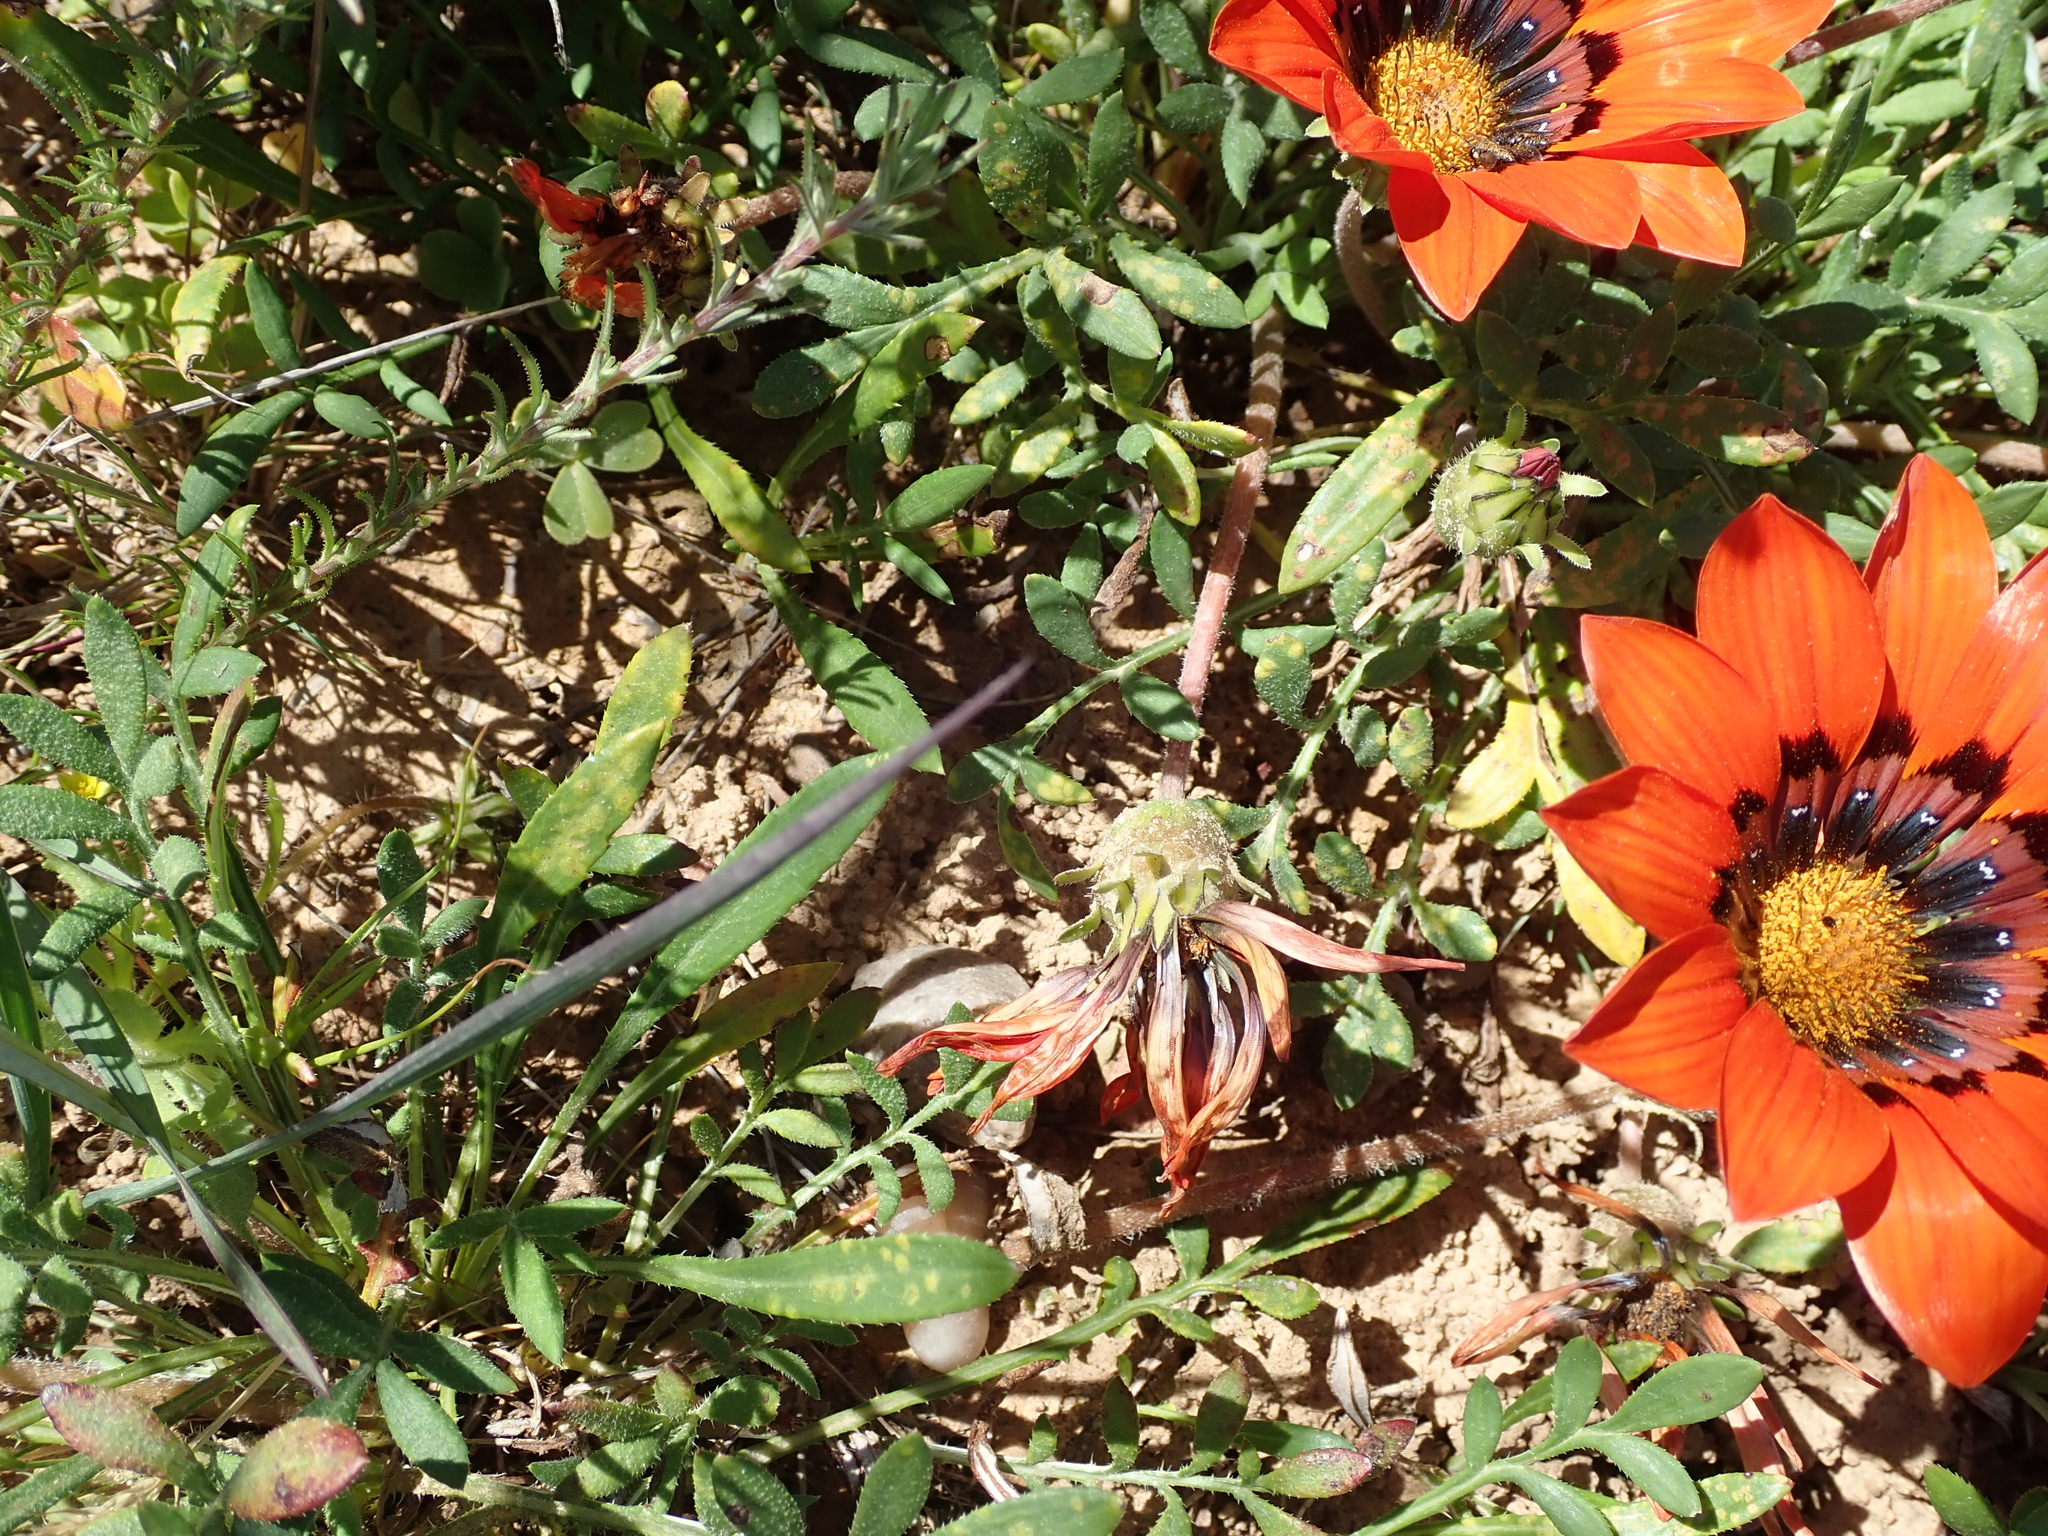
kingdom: Plantae
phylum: Tracheophyta
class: Magnoliopsida
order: Asterales
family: Asteraceae
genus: Gazania
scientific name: Gazania rigida
